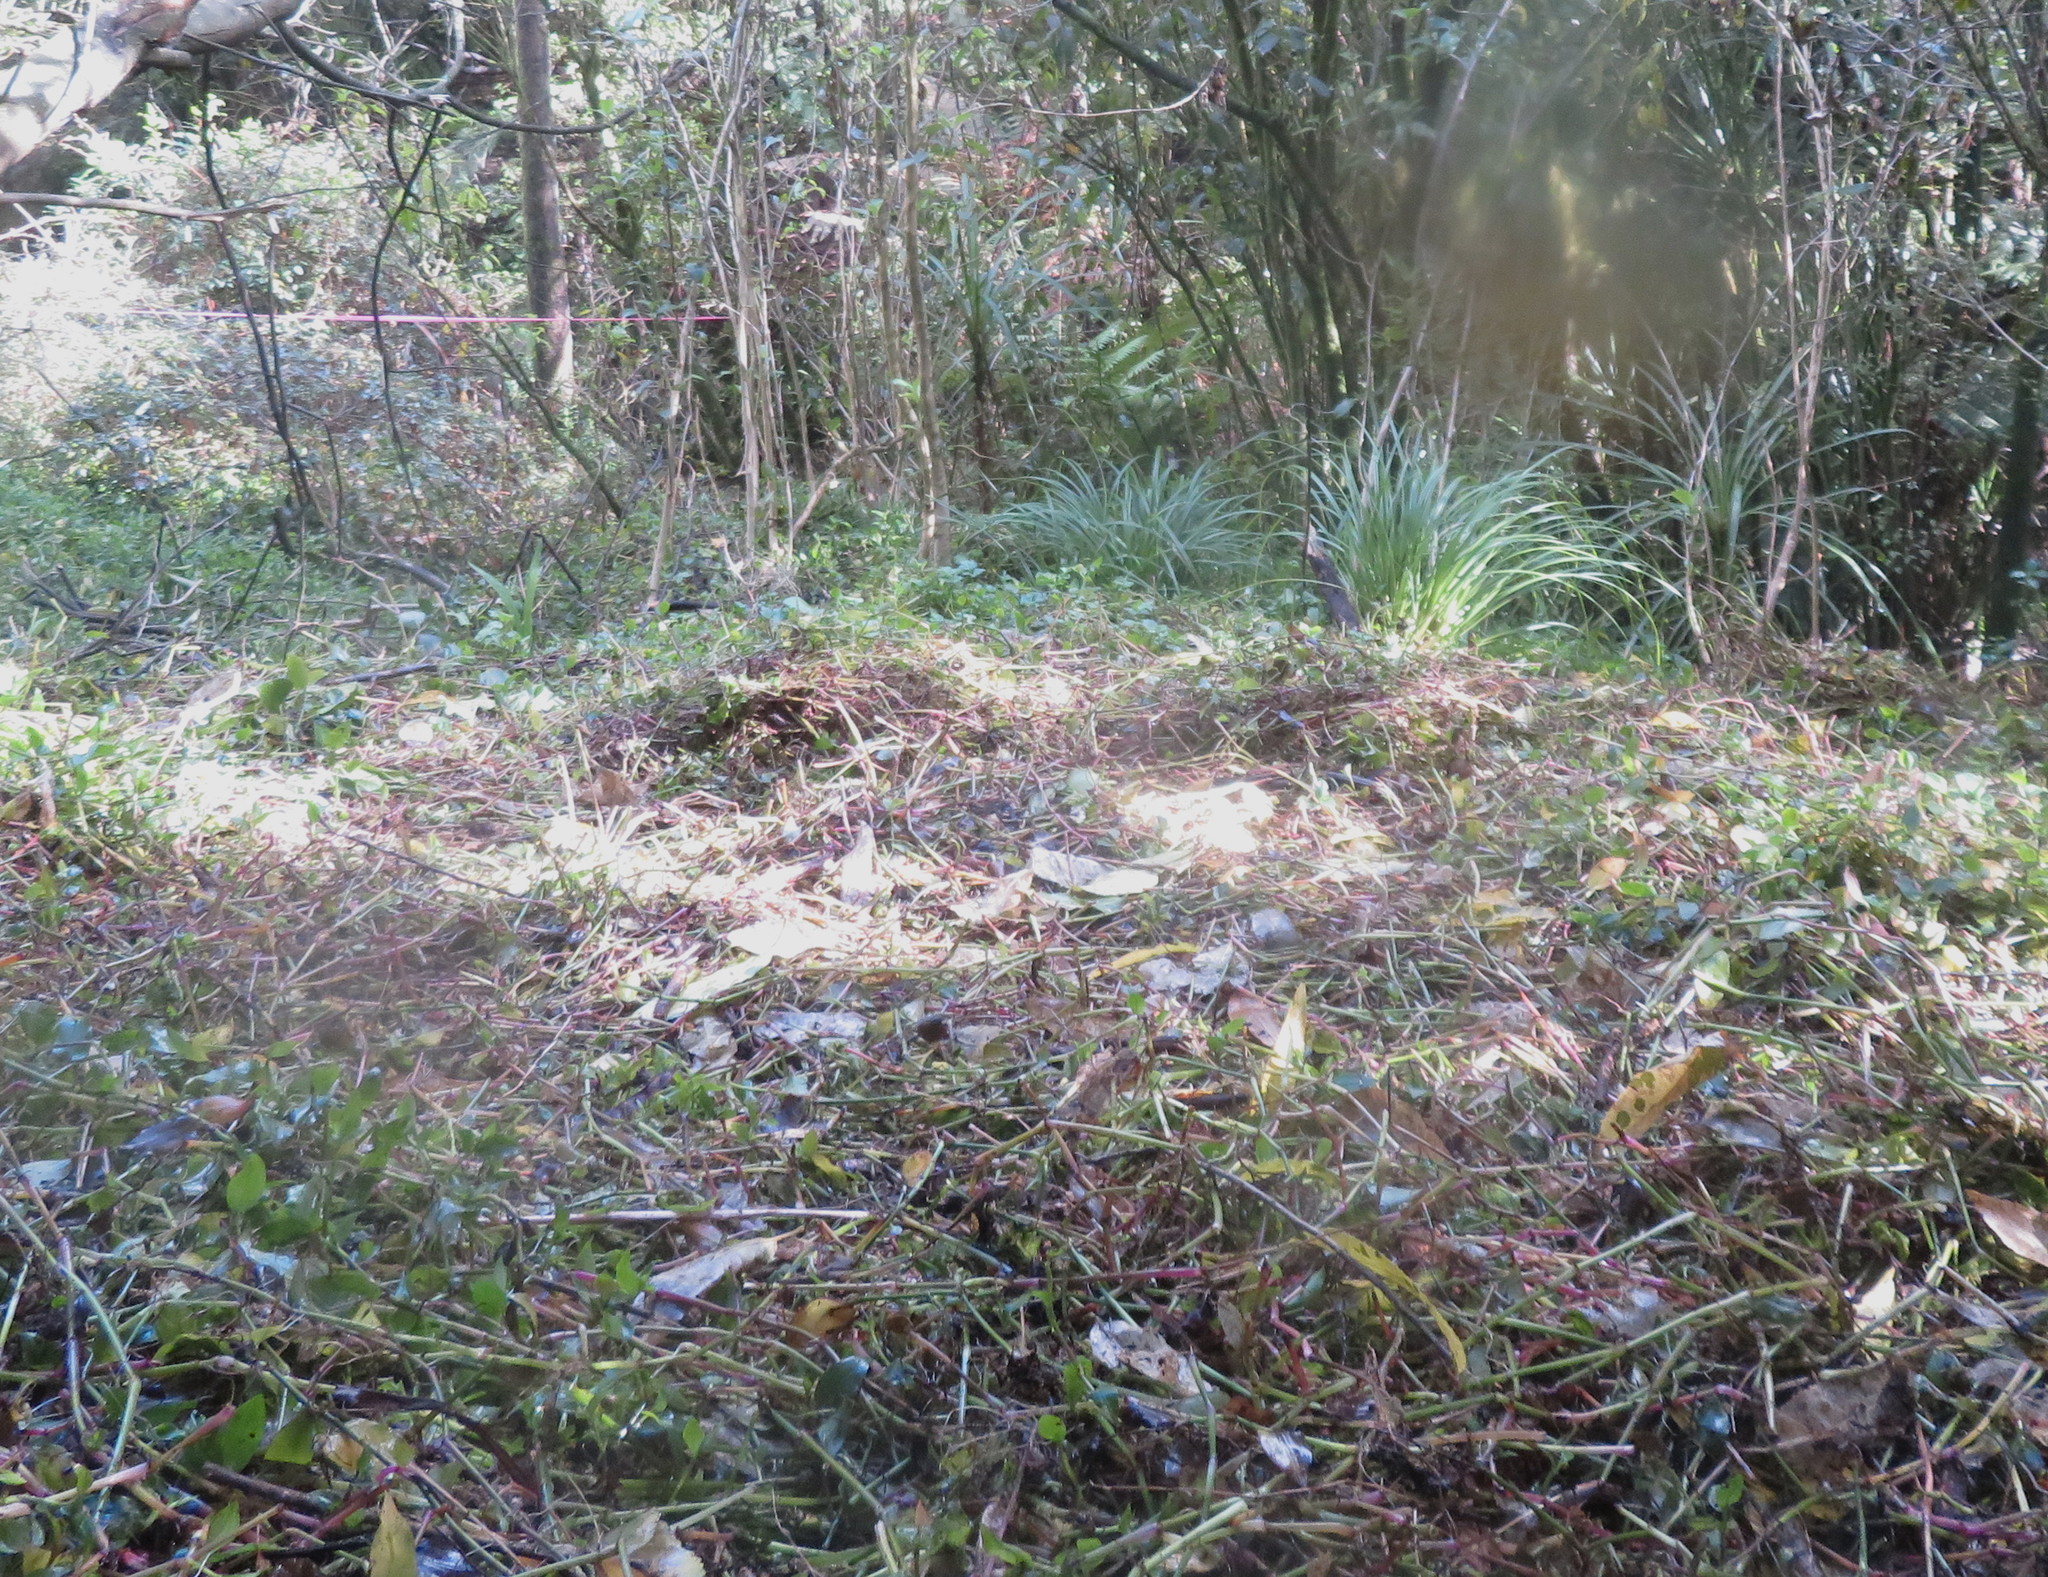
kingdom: Plantae
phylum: Tracheophyta
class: Liliopsida
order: Commelinales
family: Commelinaceae
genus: Tradescantia
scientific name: Tradescantia fluminensis
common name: Wandering-jew
